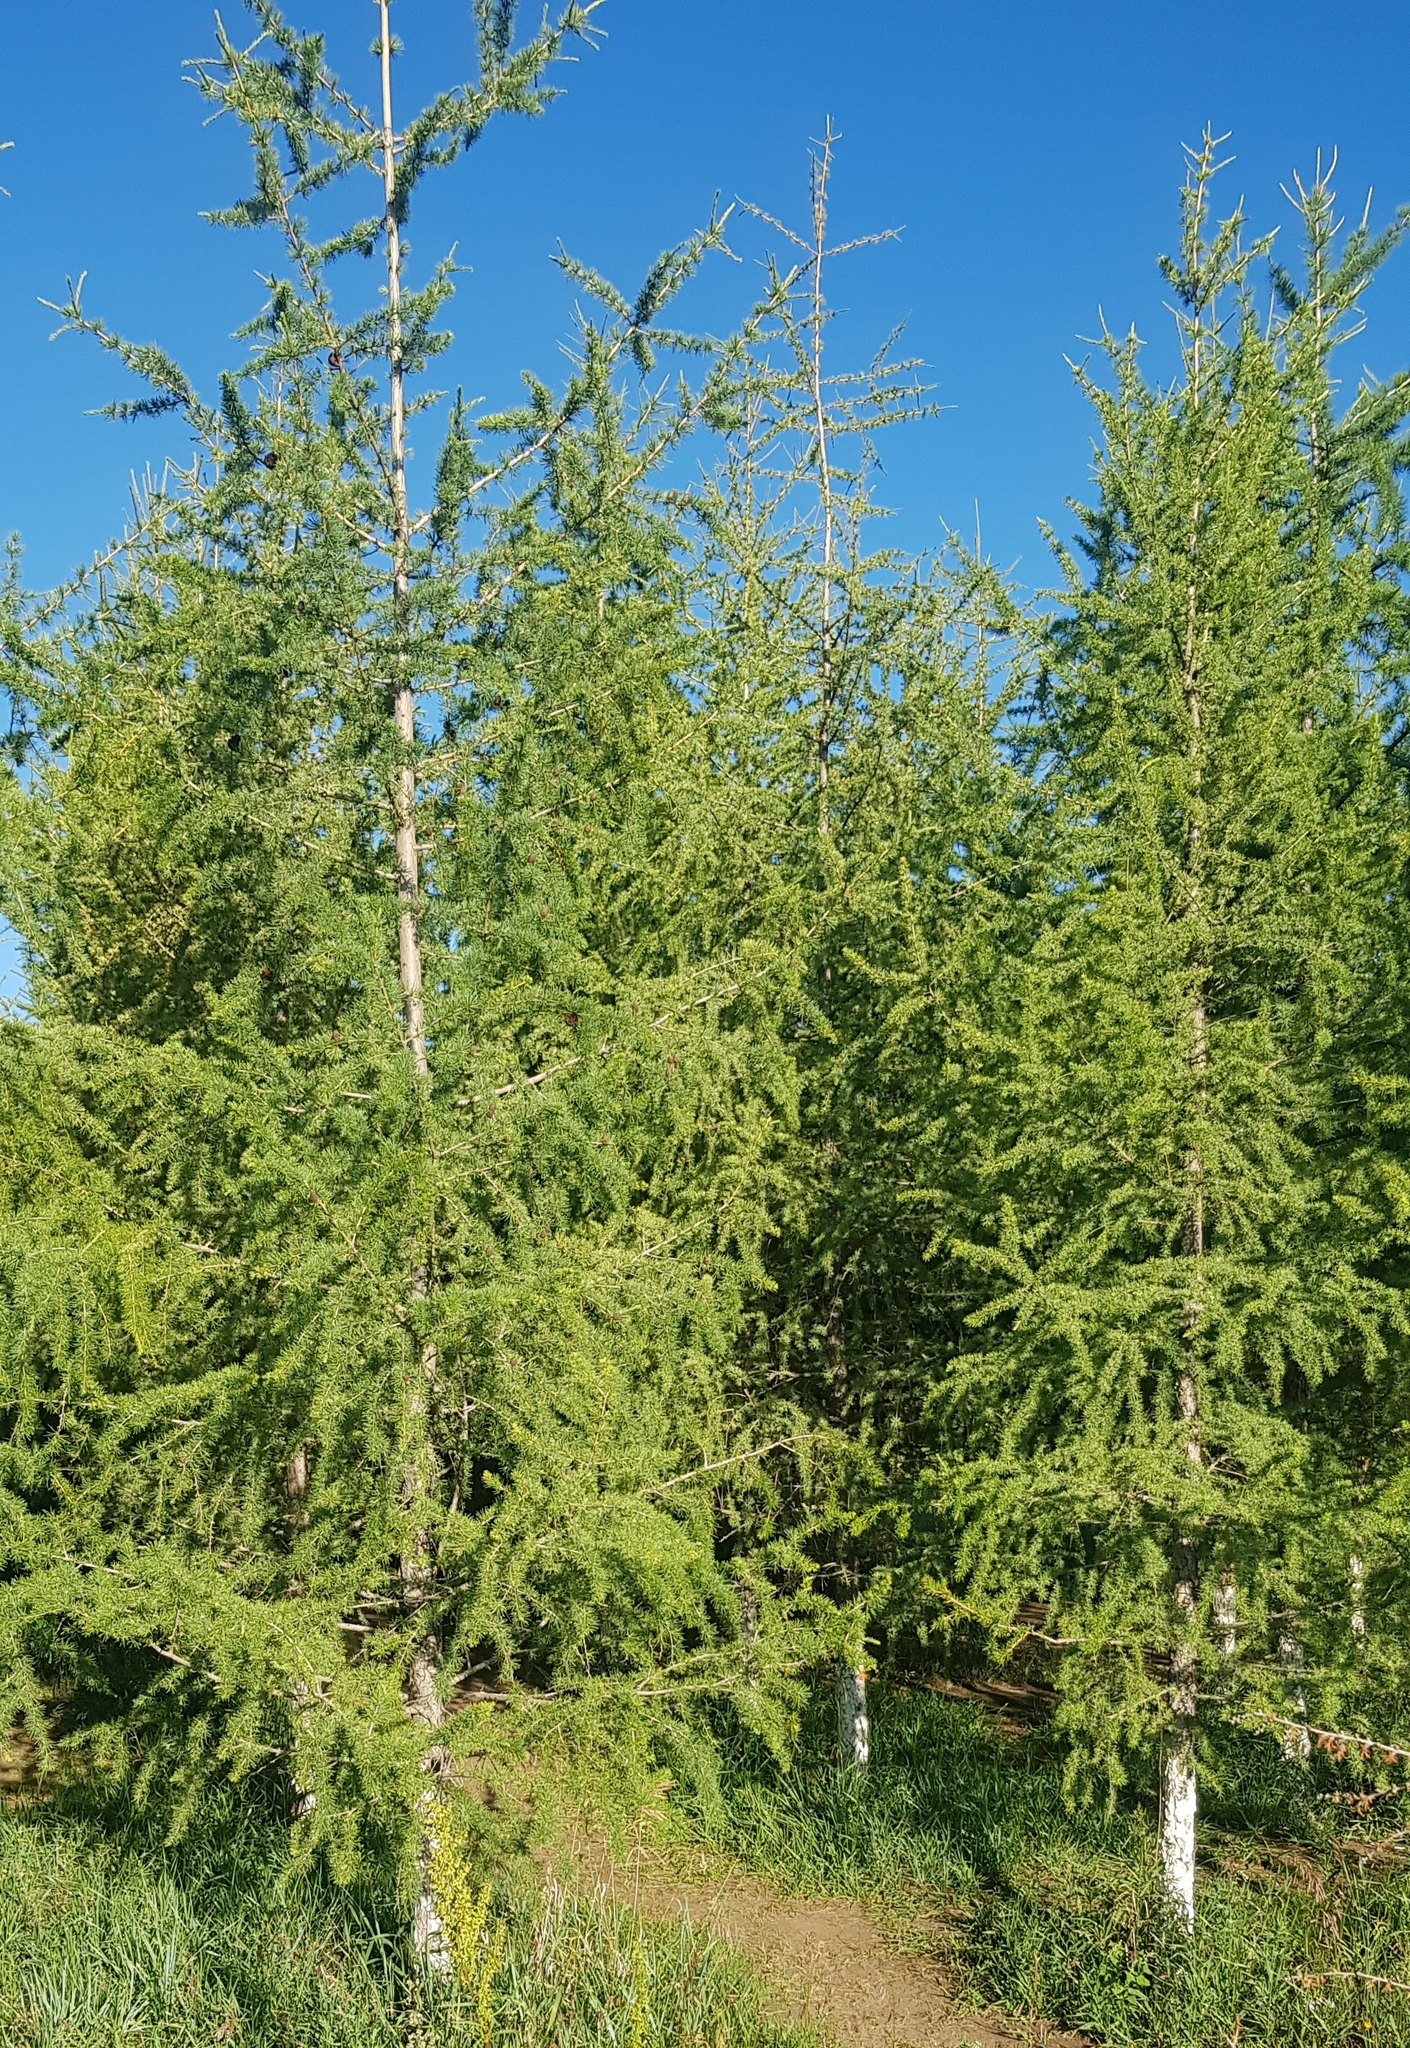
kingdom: Plantae
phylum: Tracheophyta
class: Pinopsida
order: Pinales
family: Pinaceae
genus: Larix
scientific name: Larix sibirica
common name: Siberian larch
